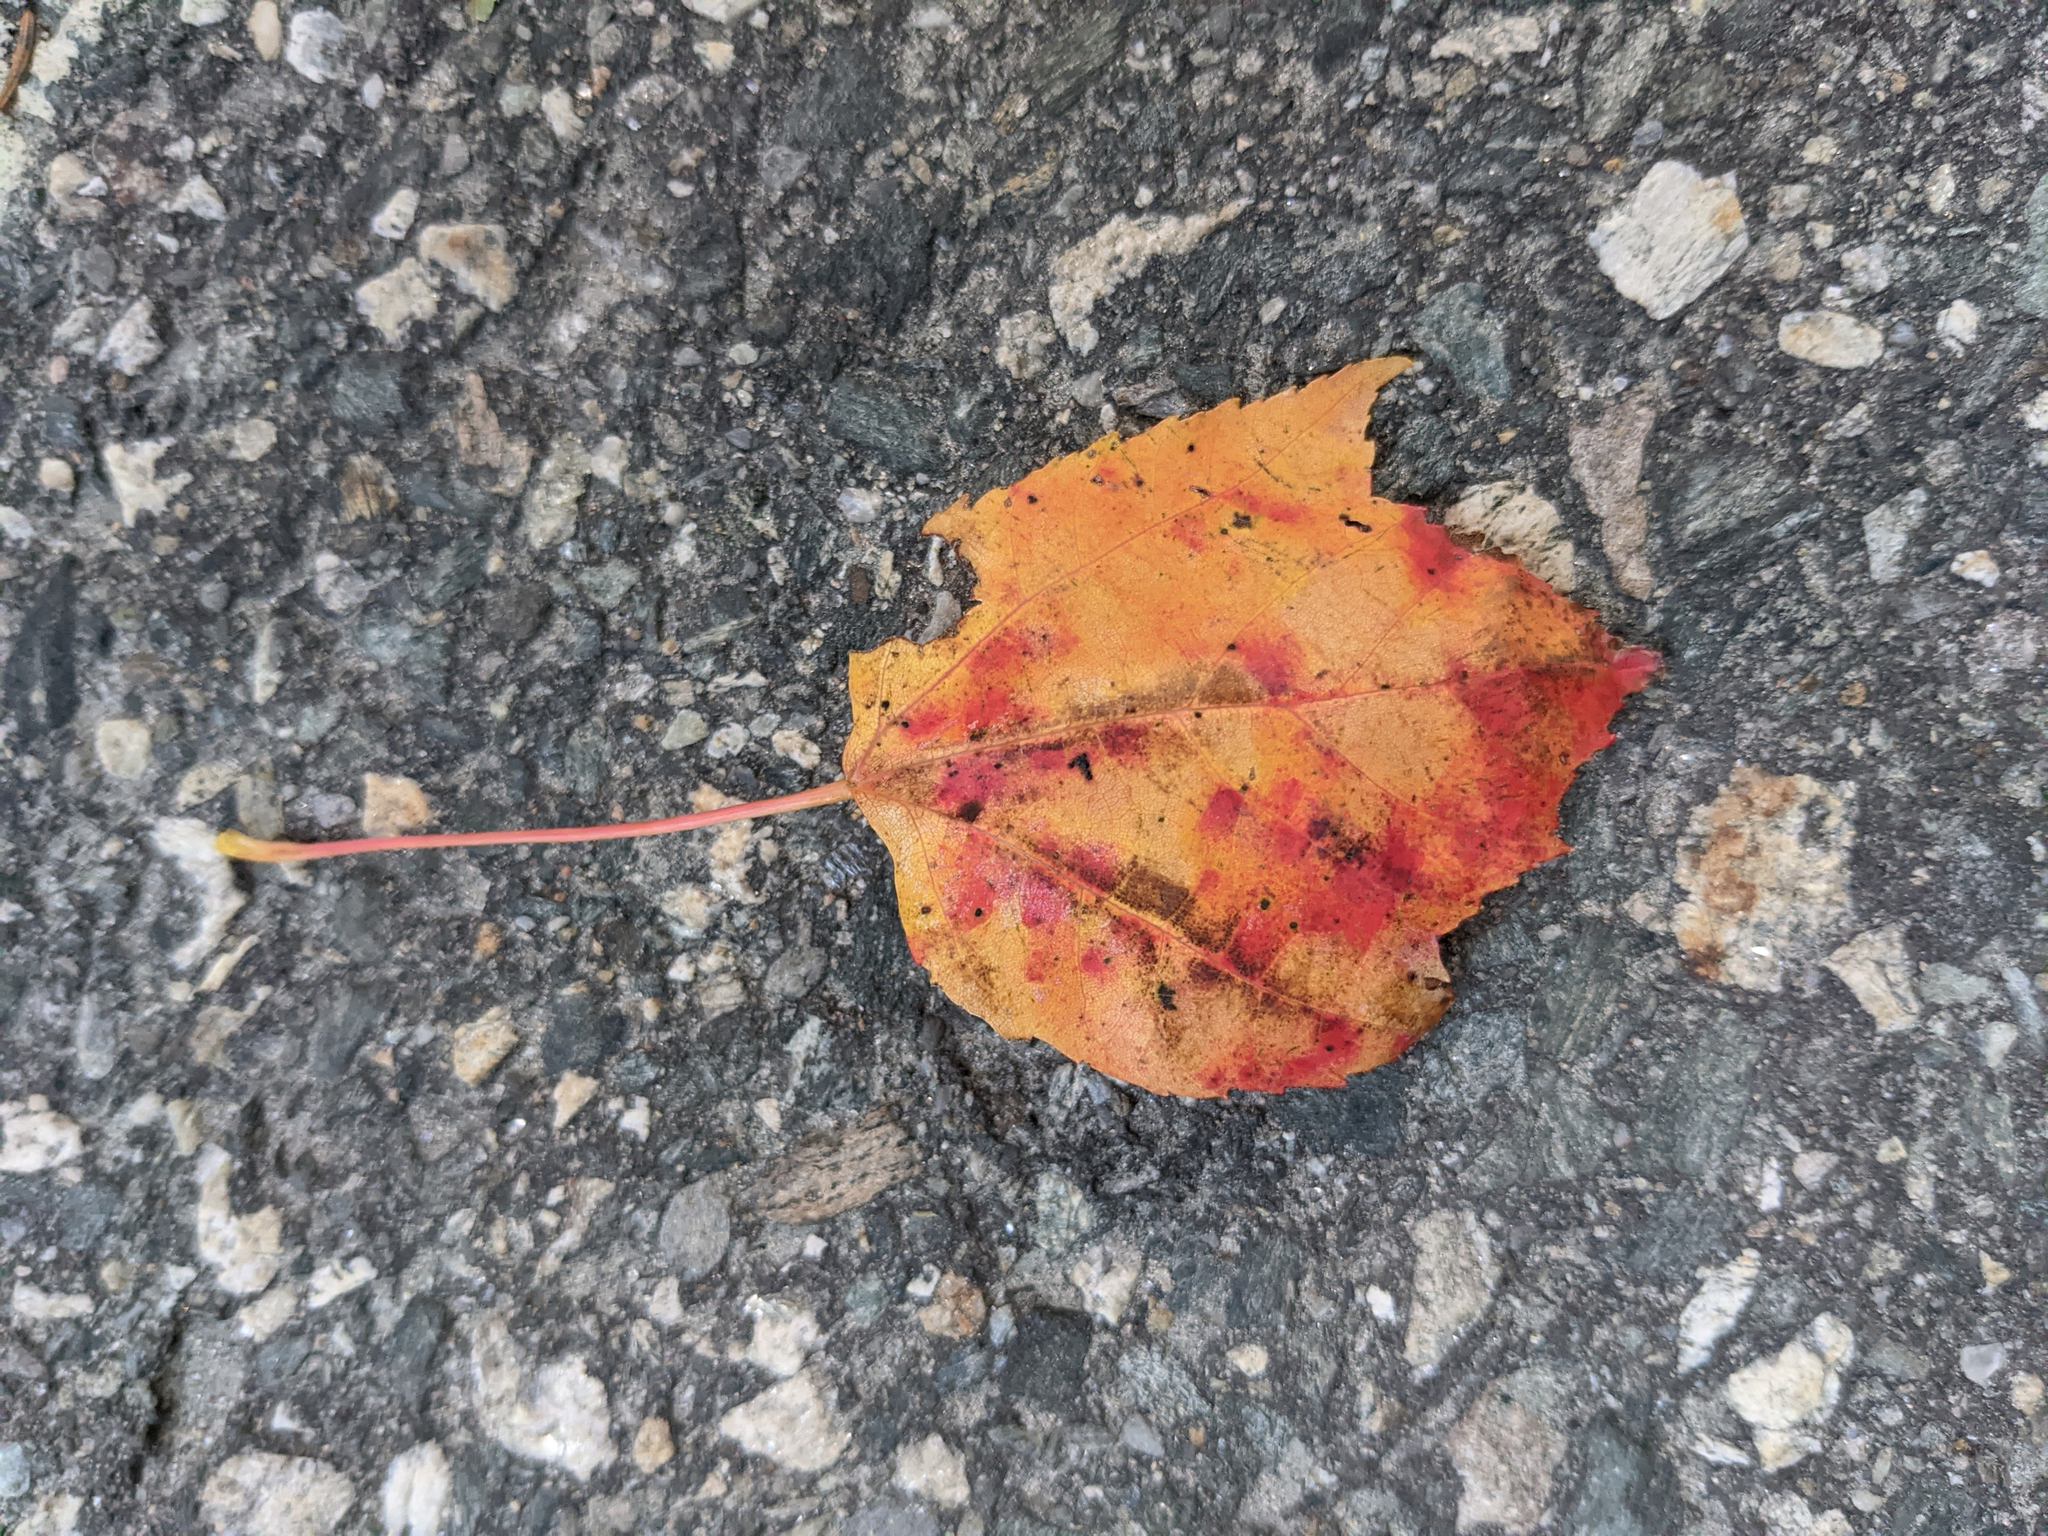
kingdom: Plantae
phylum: Tracheophyta
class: Magnoliopsida
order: Sapindales
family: Sapindaceae
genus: Acer
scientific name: Acer rubrum
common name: Red maple
